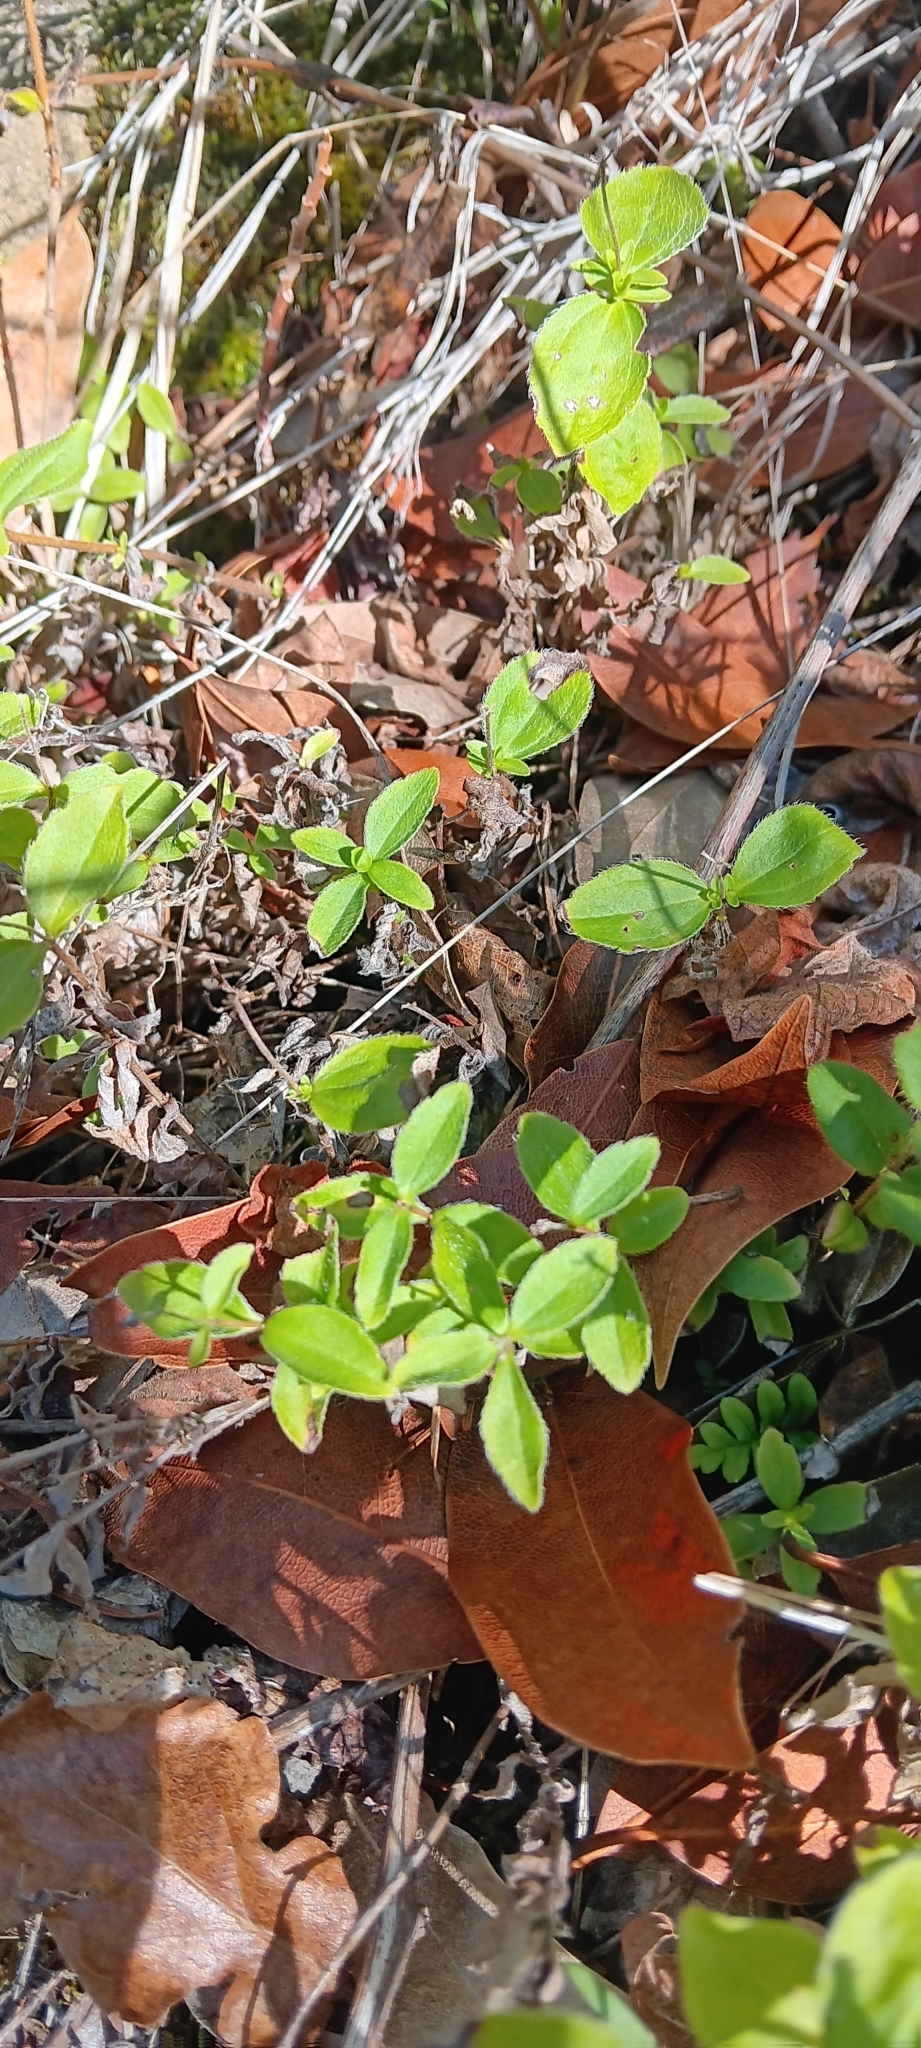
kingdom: Plantae
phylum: Tracheophyta
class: Magnoliopsida
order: Cornales
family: Hydrangeaceae
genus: Whipplea
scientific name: Whipplea modesta
